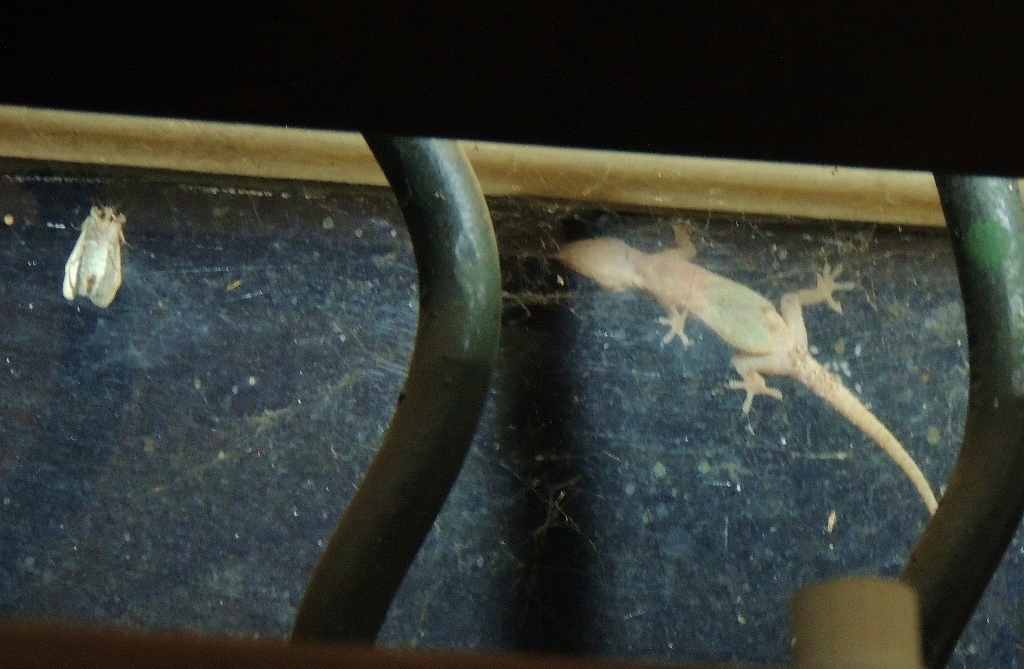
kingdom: Animalia
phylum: Chordata
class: Squamata
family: Gekkonidae
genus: Hemidactylus
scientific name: Hemidactylus mabouia
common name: House gecko
